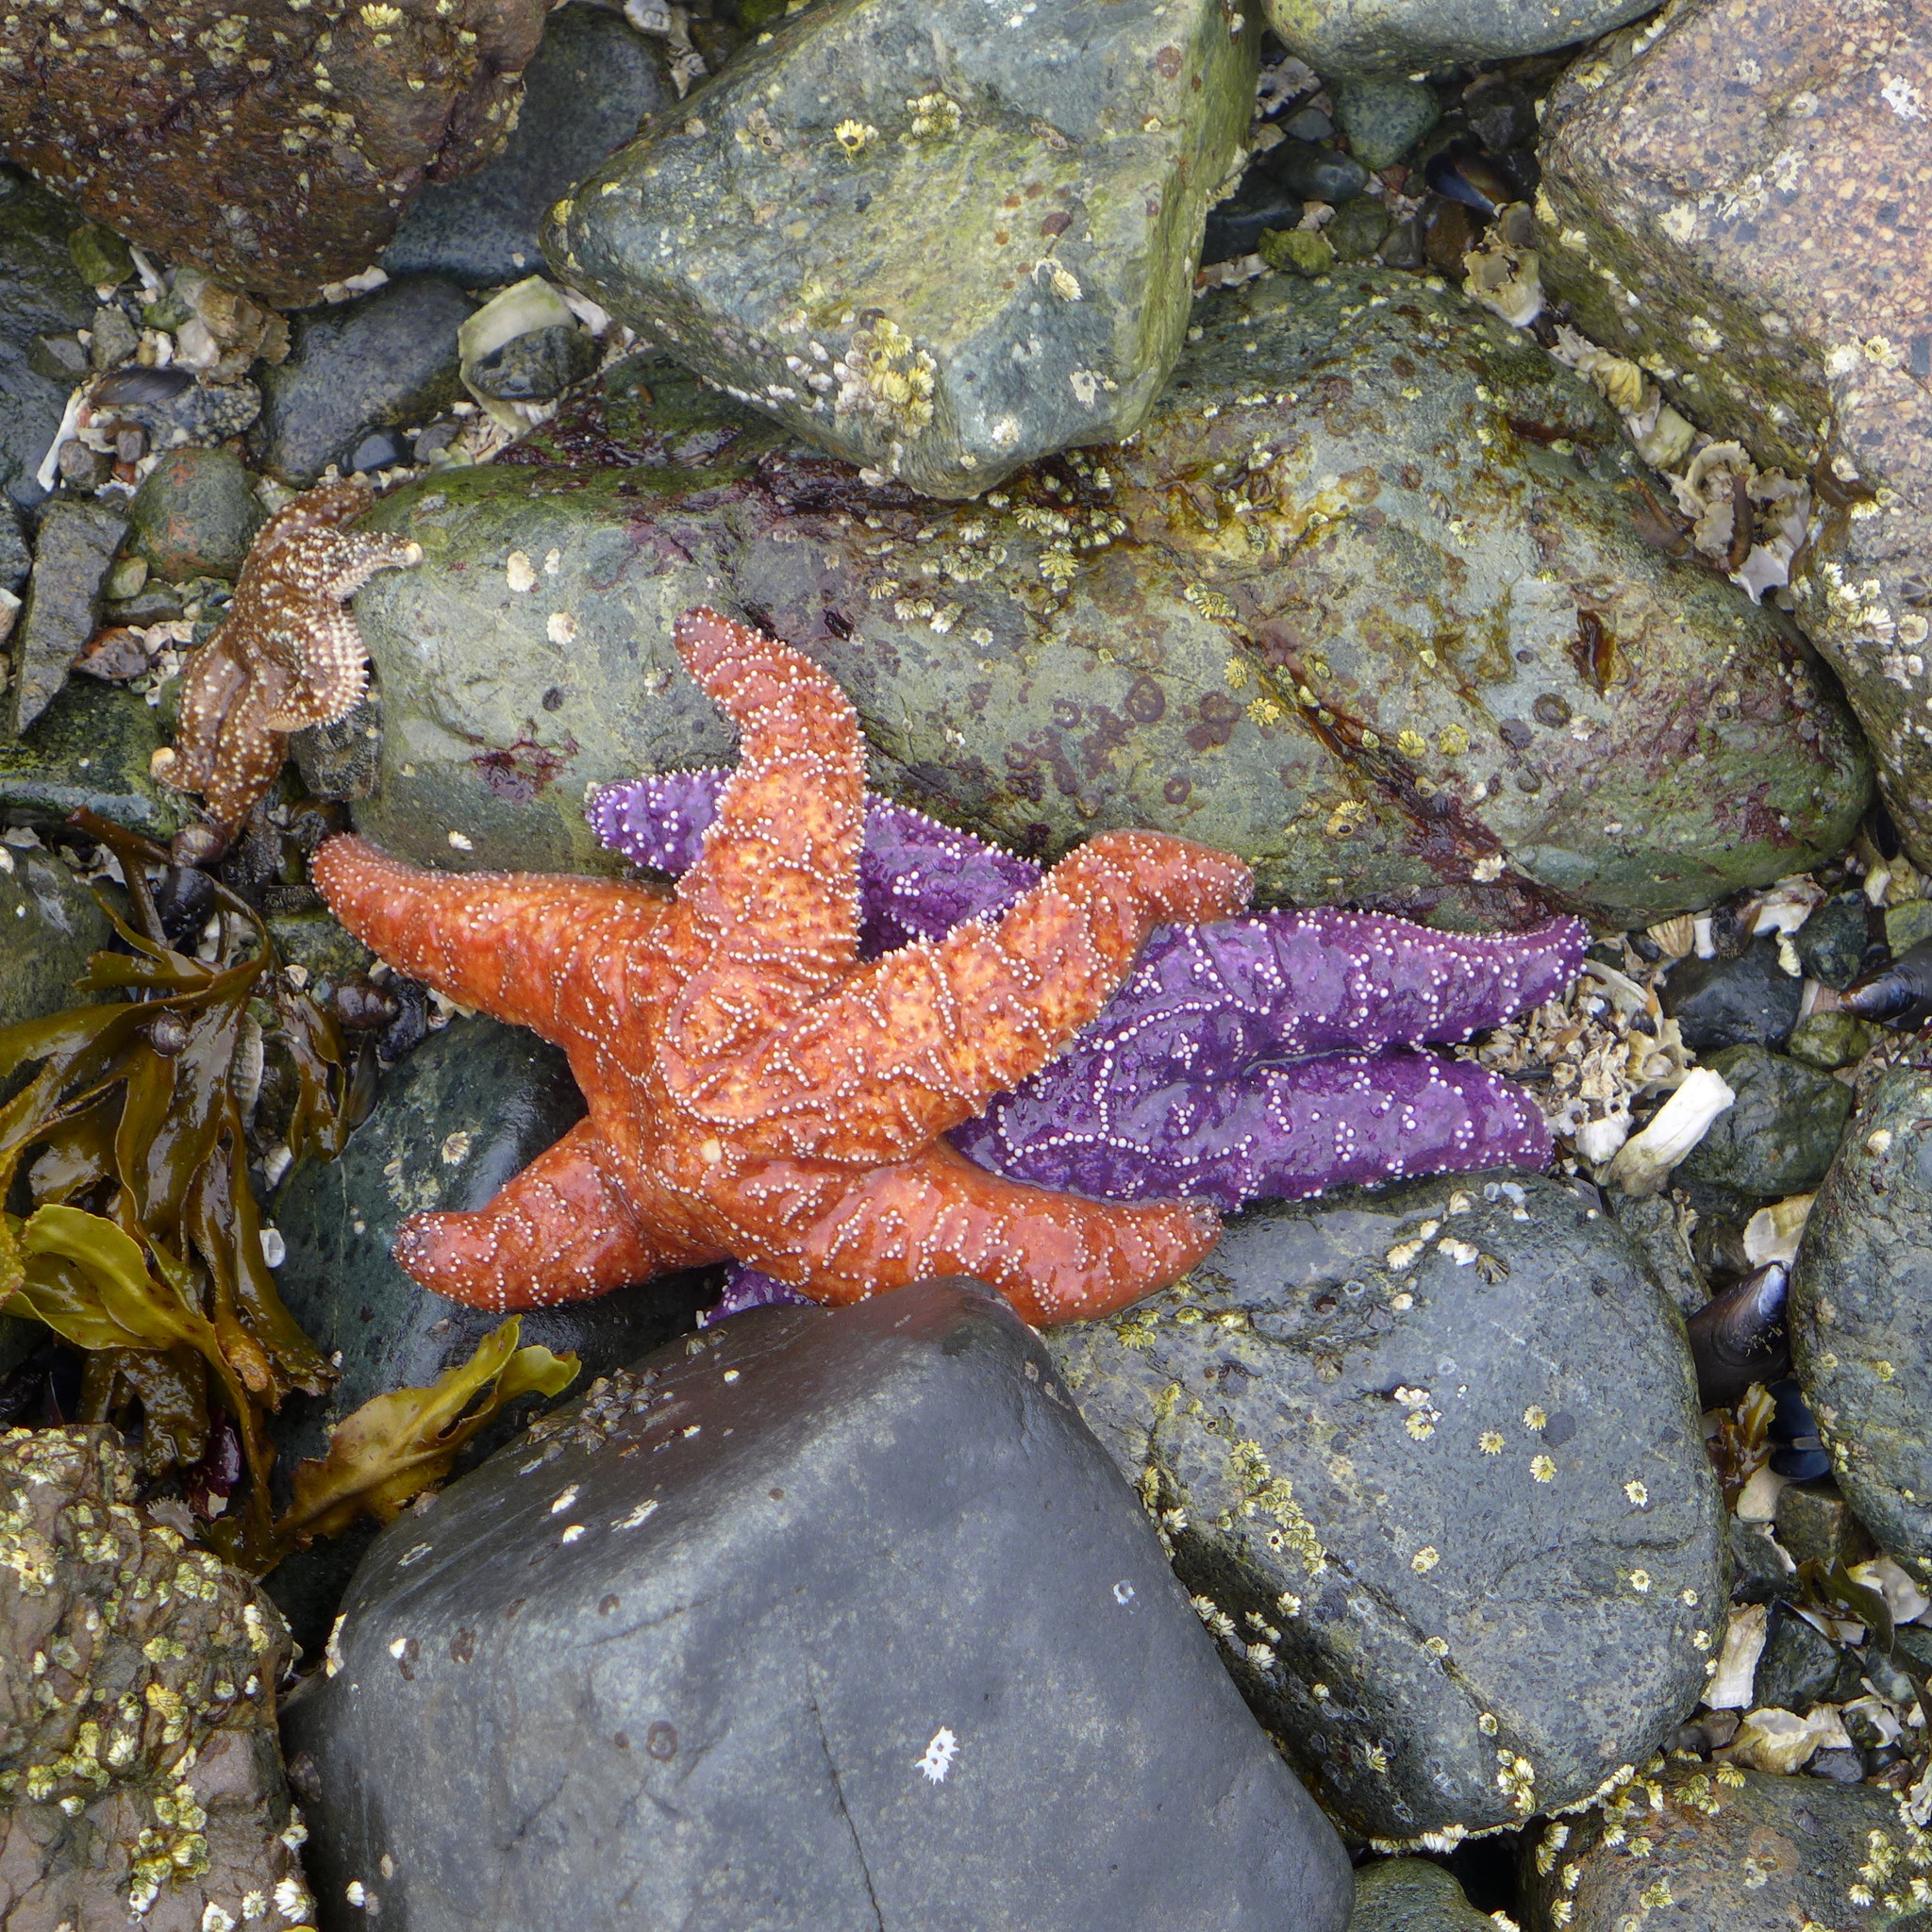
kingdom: Animalia
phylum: Echinodermata
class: Asteroidea
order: Forcipulatida
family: Asteriidae
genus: Pisaster
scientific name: Pisaster ochraceus
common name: Ochre stars
